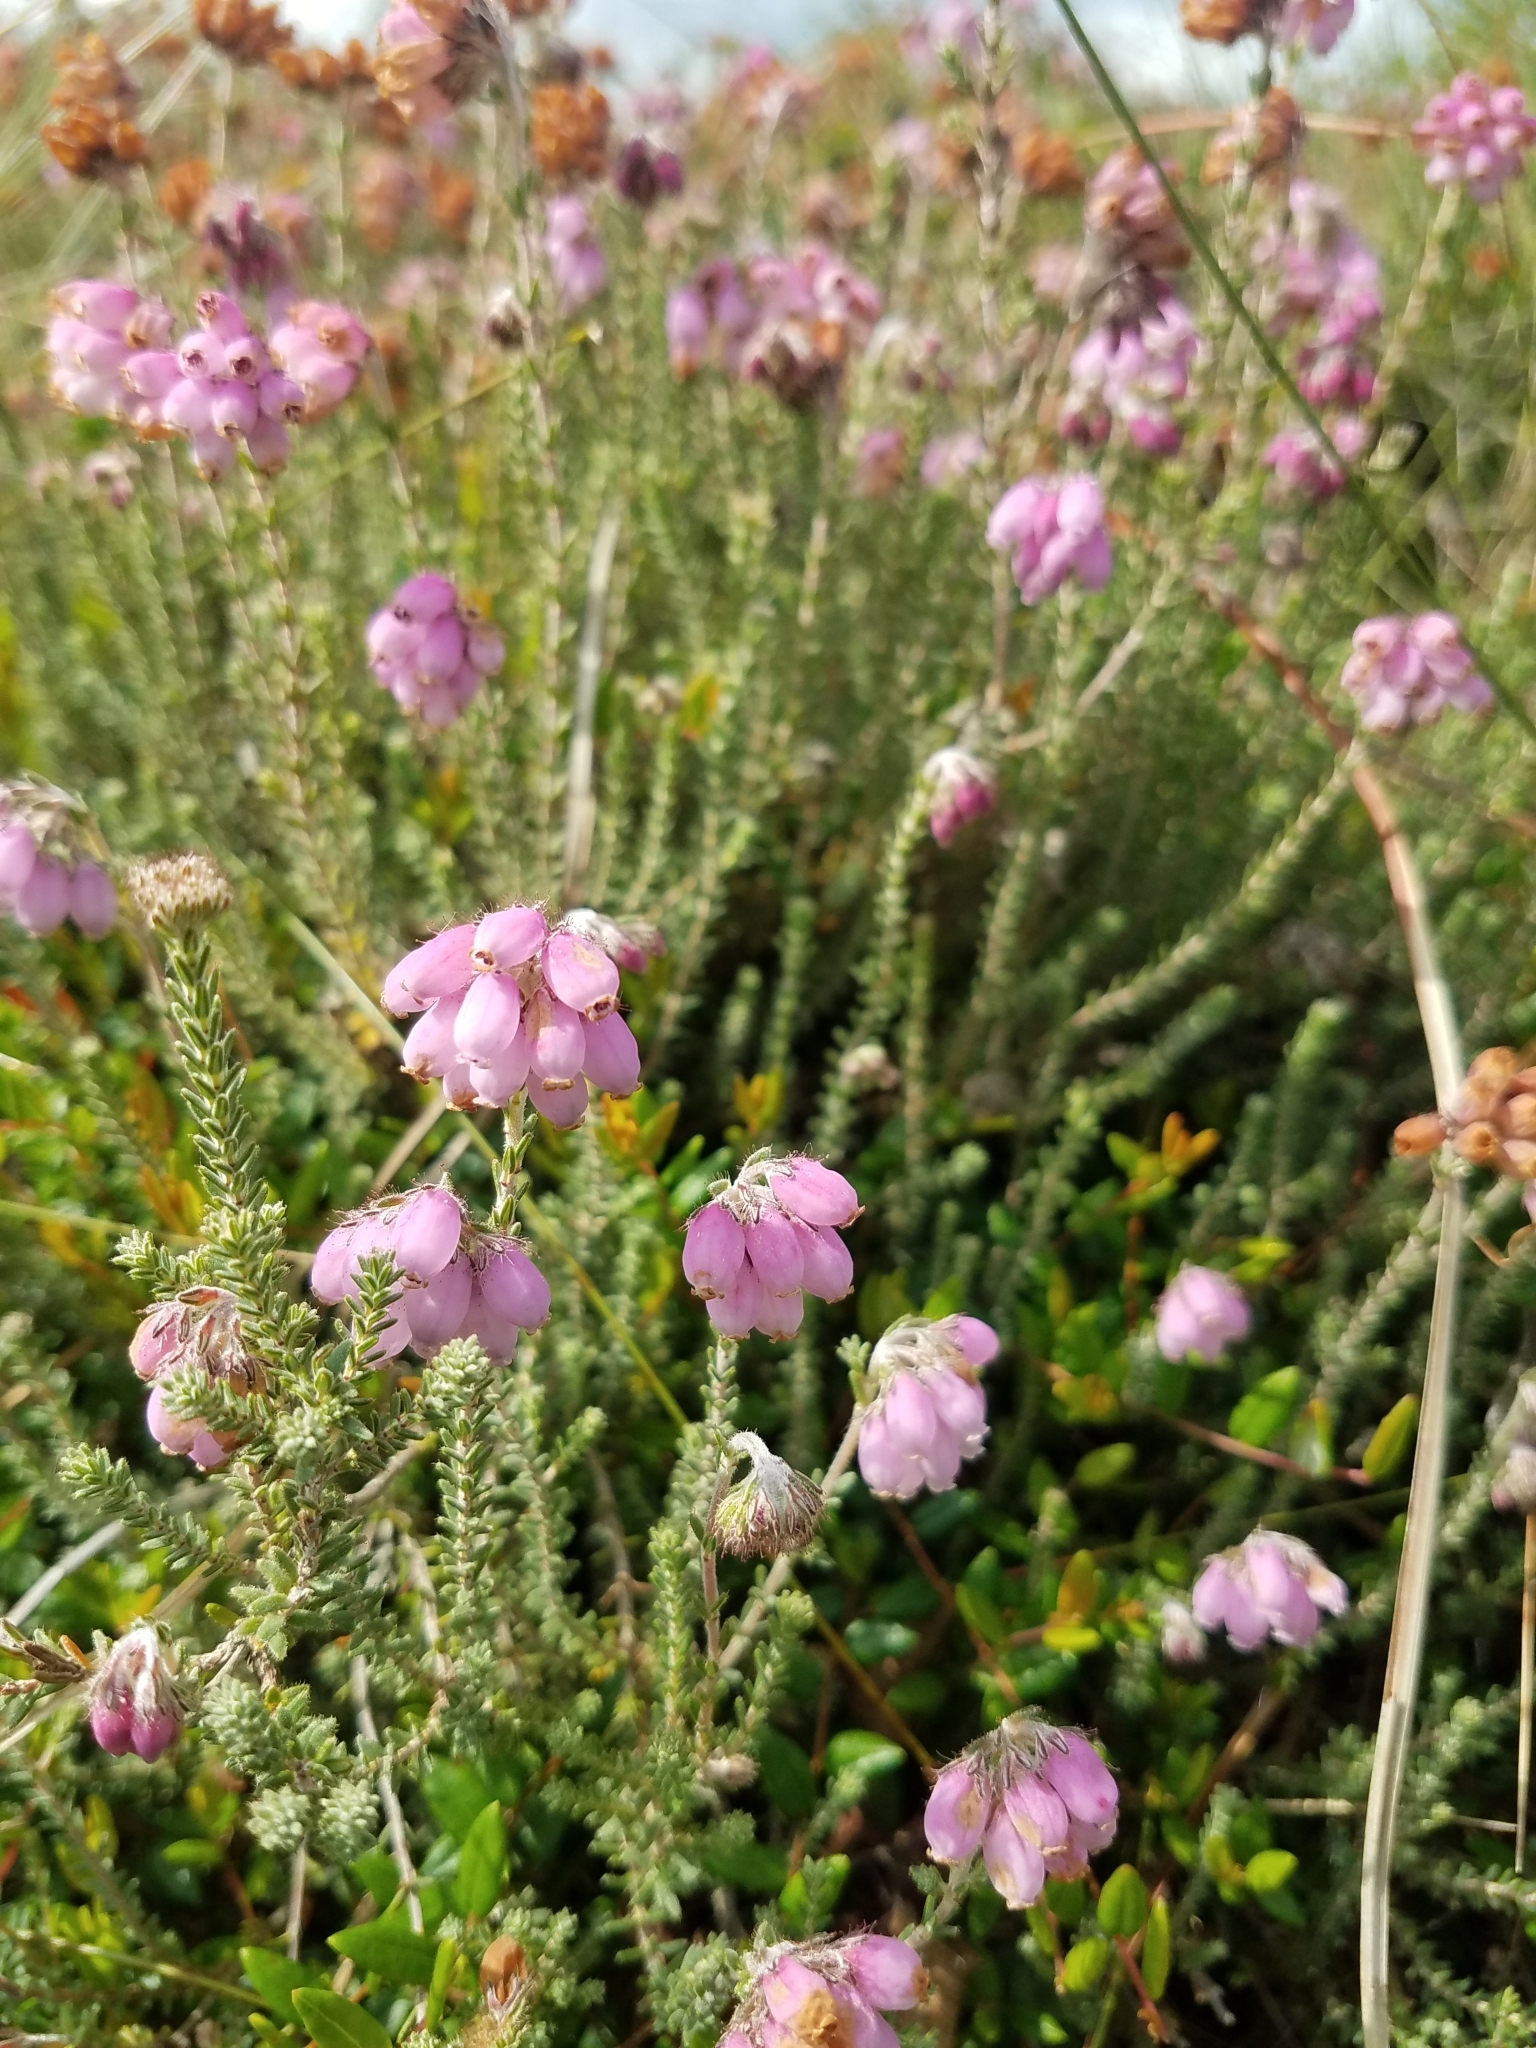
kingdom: Plantae
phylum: Tracheophyta
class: Magnoliopsida
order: Ericales
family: Ericaceae
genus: Erica
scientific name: Erica tetralix
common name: Cross-leaved heath
